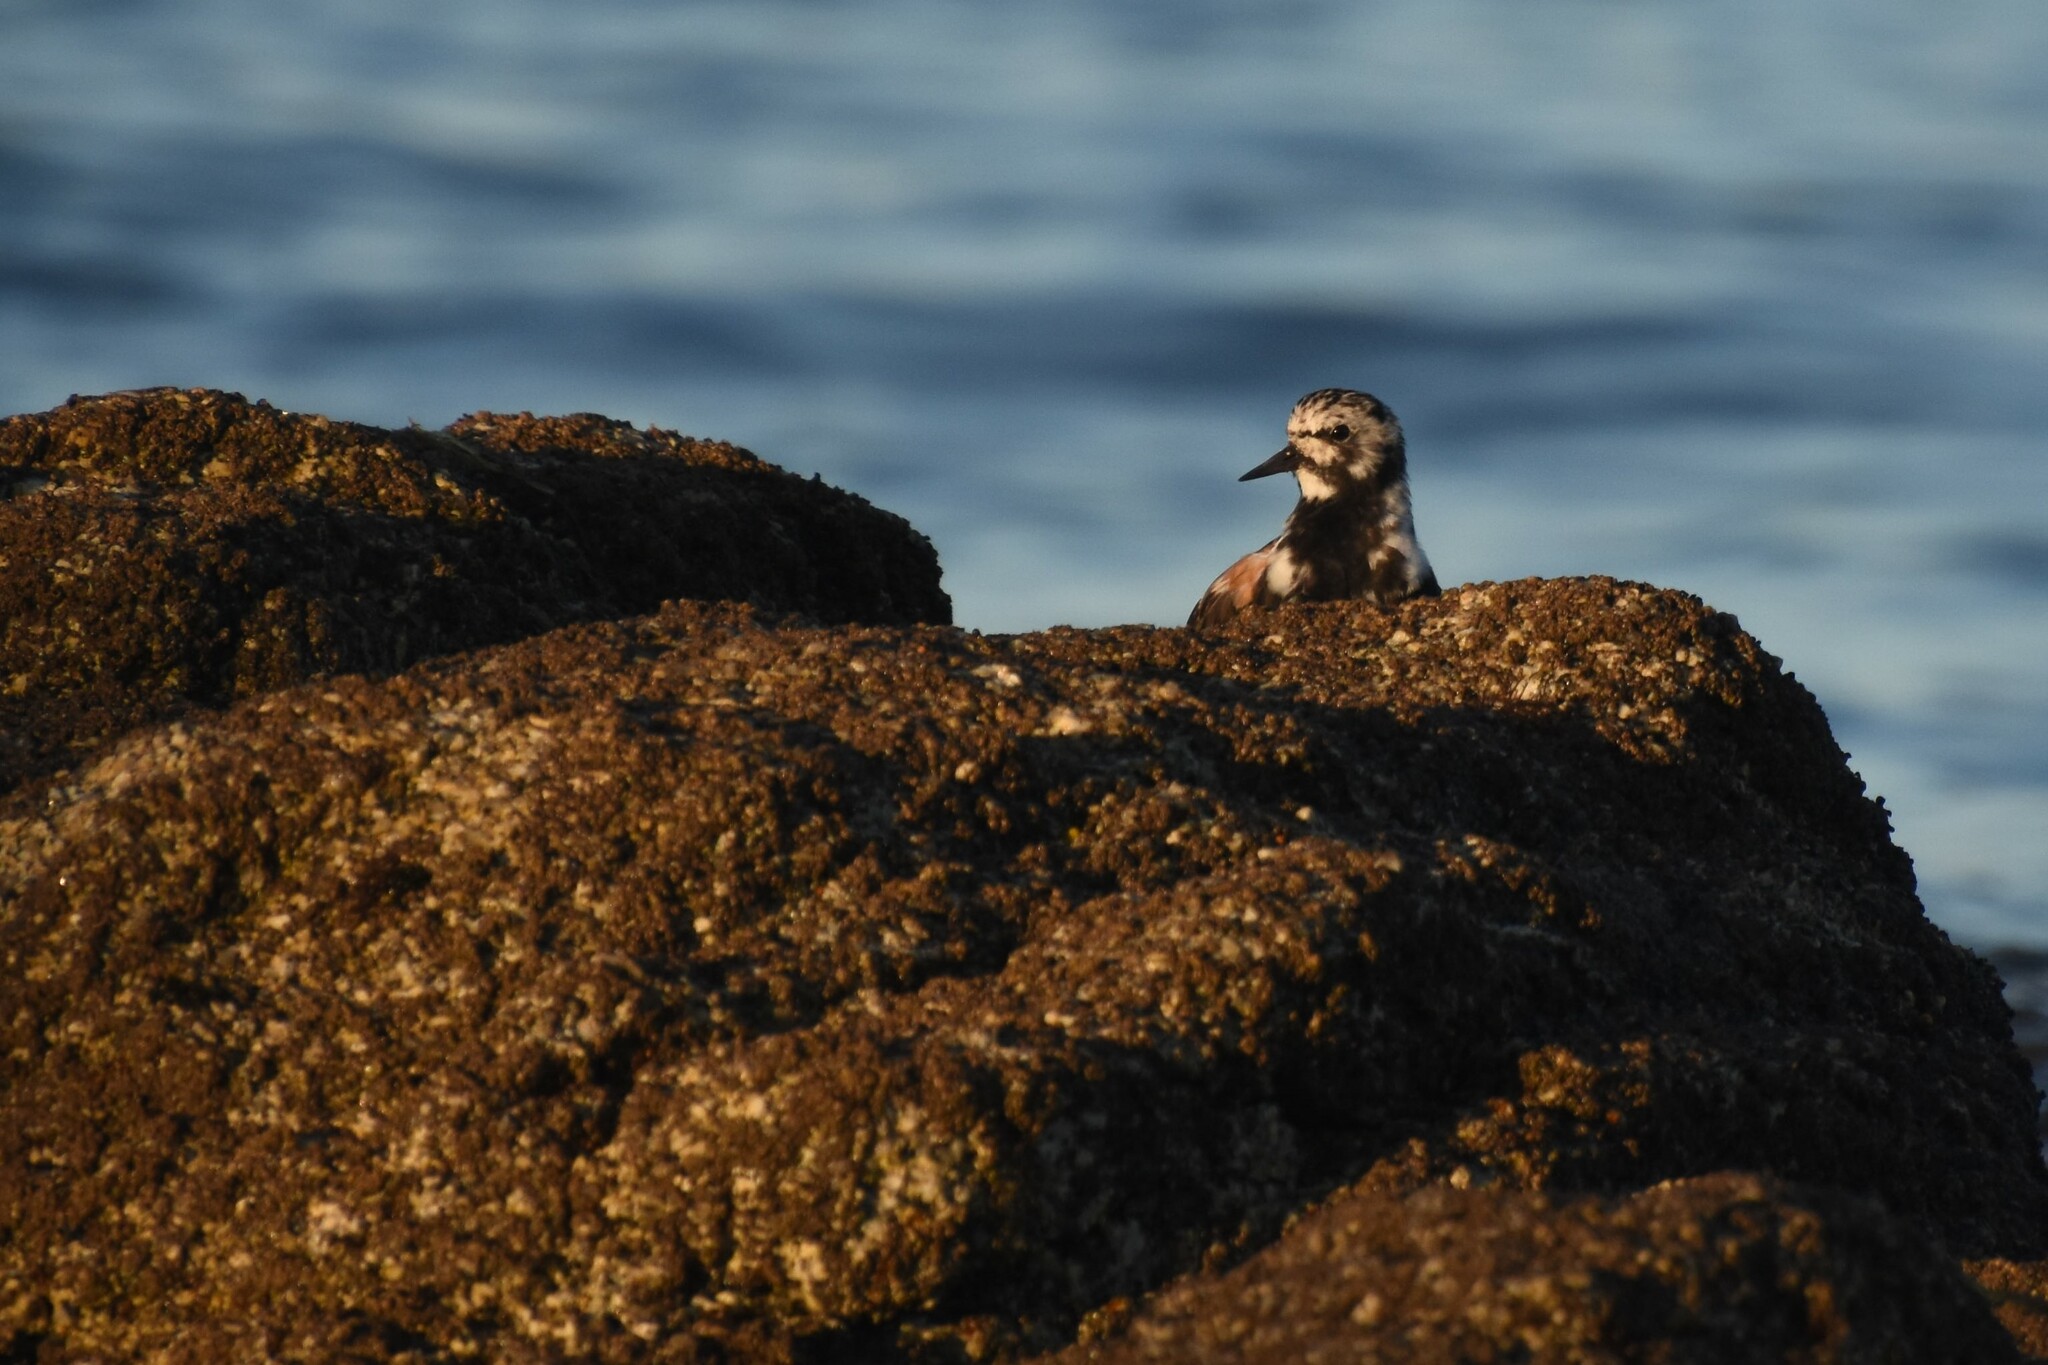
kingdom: Animalia
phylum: Chordata
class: Aves
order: Charadriiformes
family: Scolopacidae
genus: Arenaria
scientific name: Arenaria interpres
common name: Ruddy turnstone
